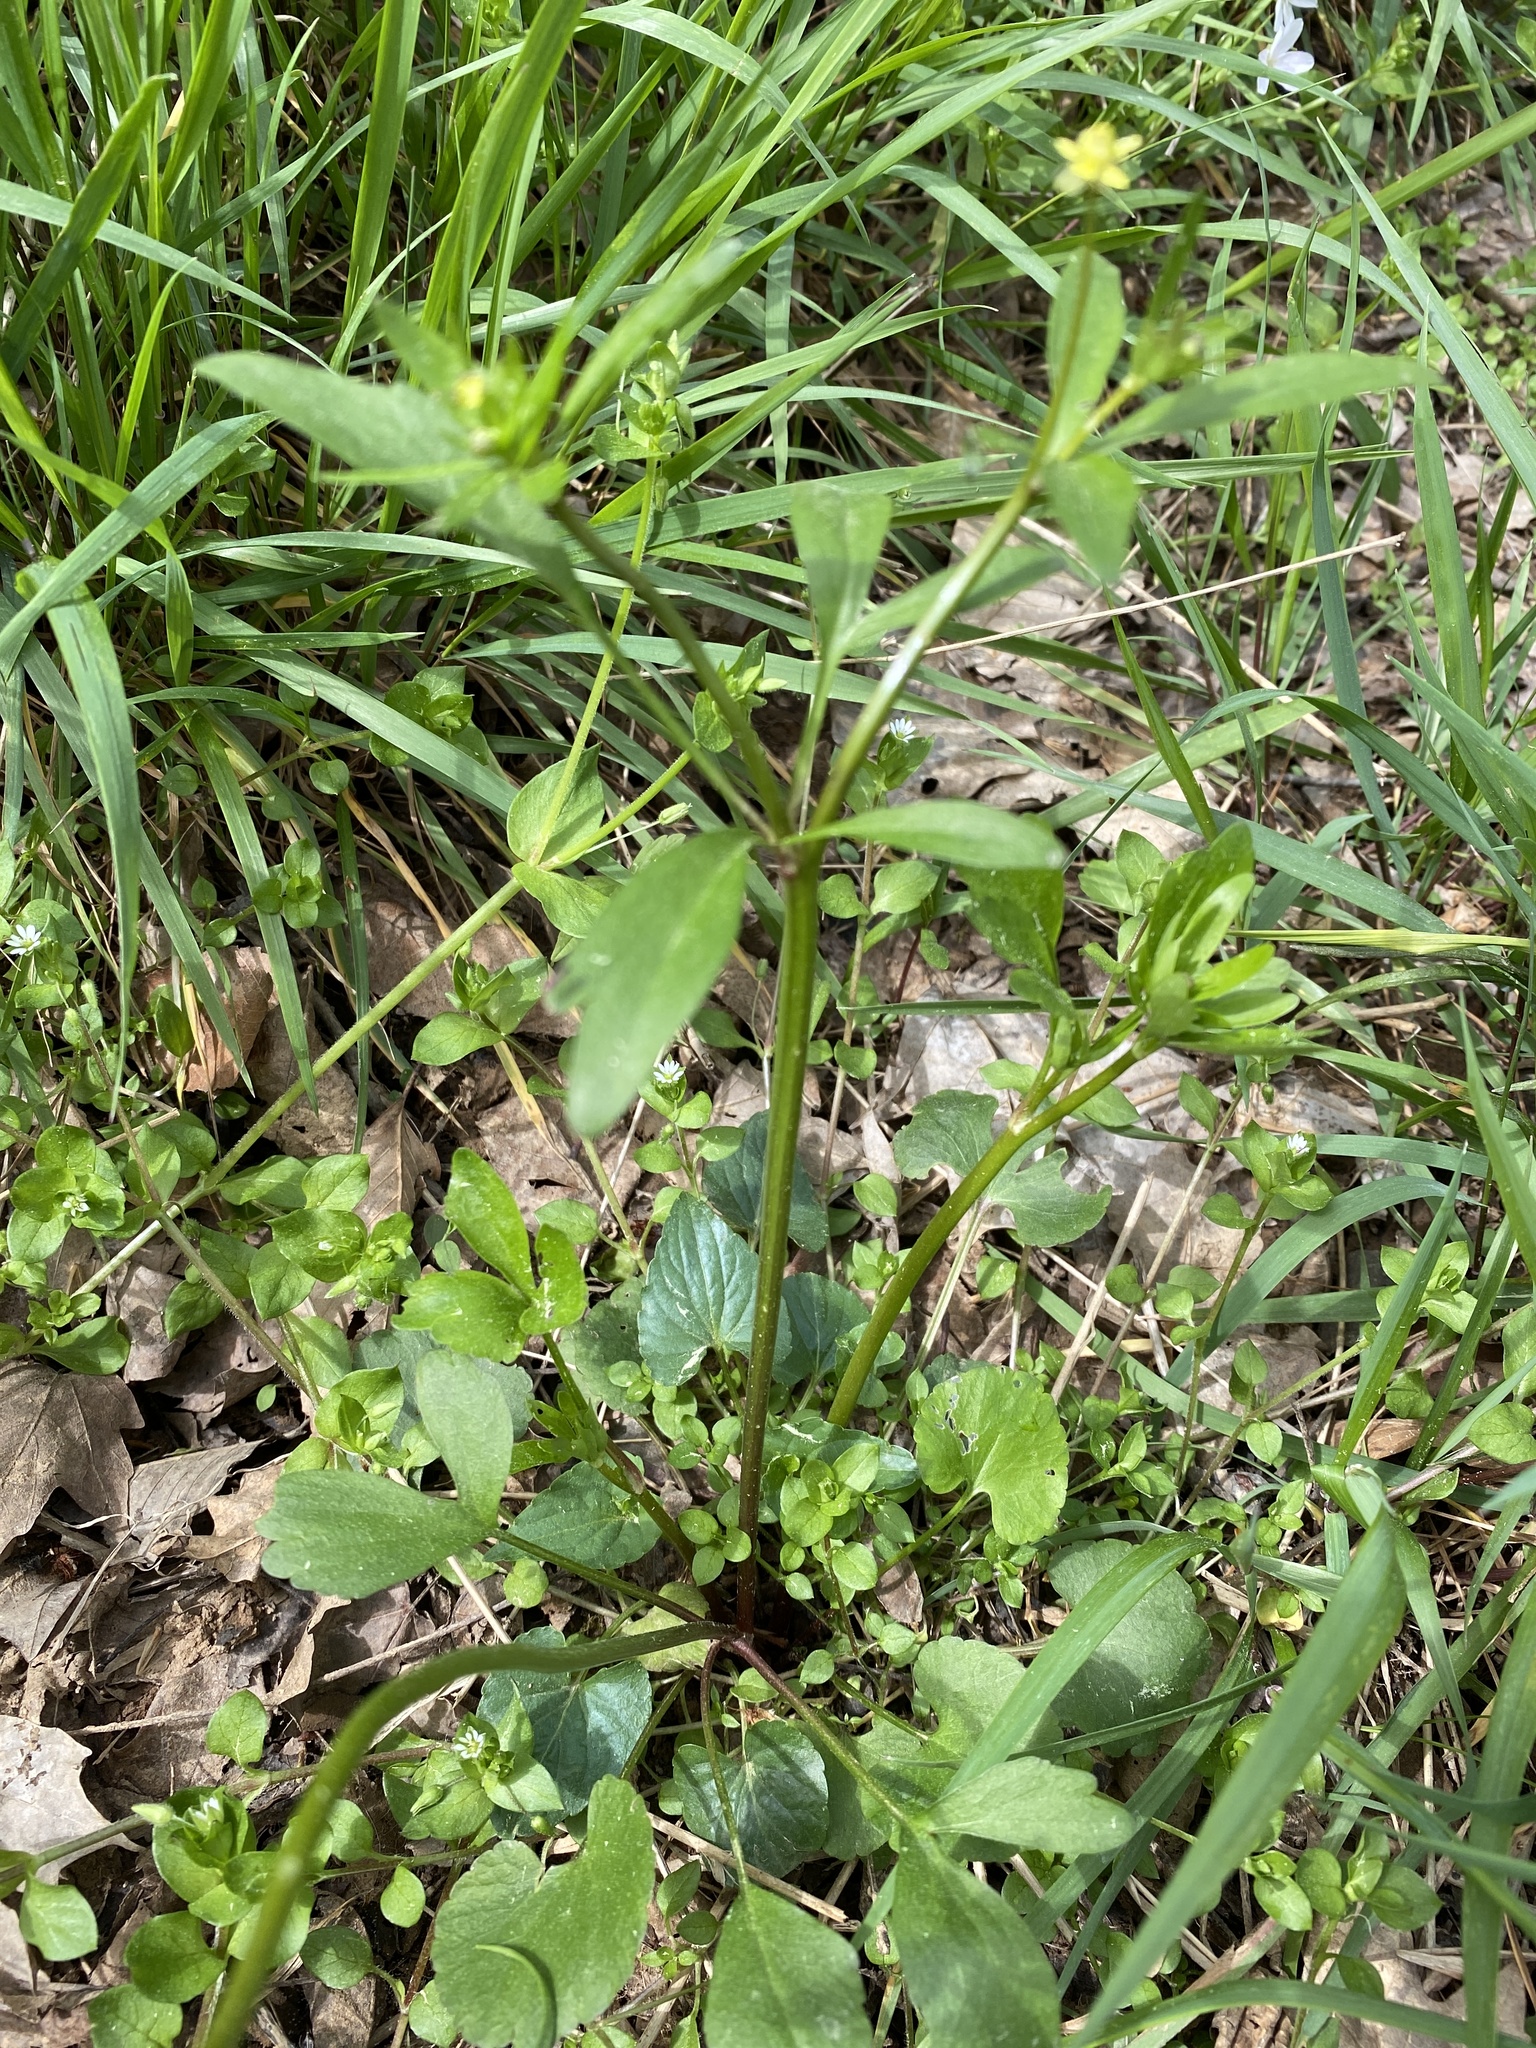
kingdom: Plantae
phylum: Tracheophyta
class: Magnoliopsida
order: Ranunculales
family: Ranunculaceae
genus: Ranunculus
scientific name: Ranunculus abortivus
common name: Early wood buttercup
